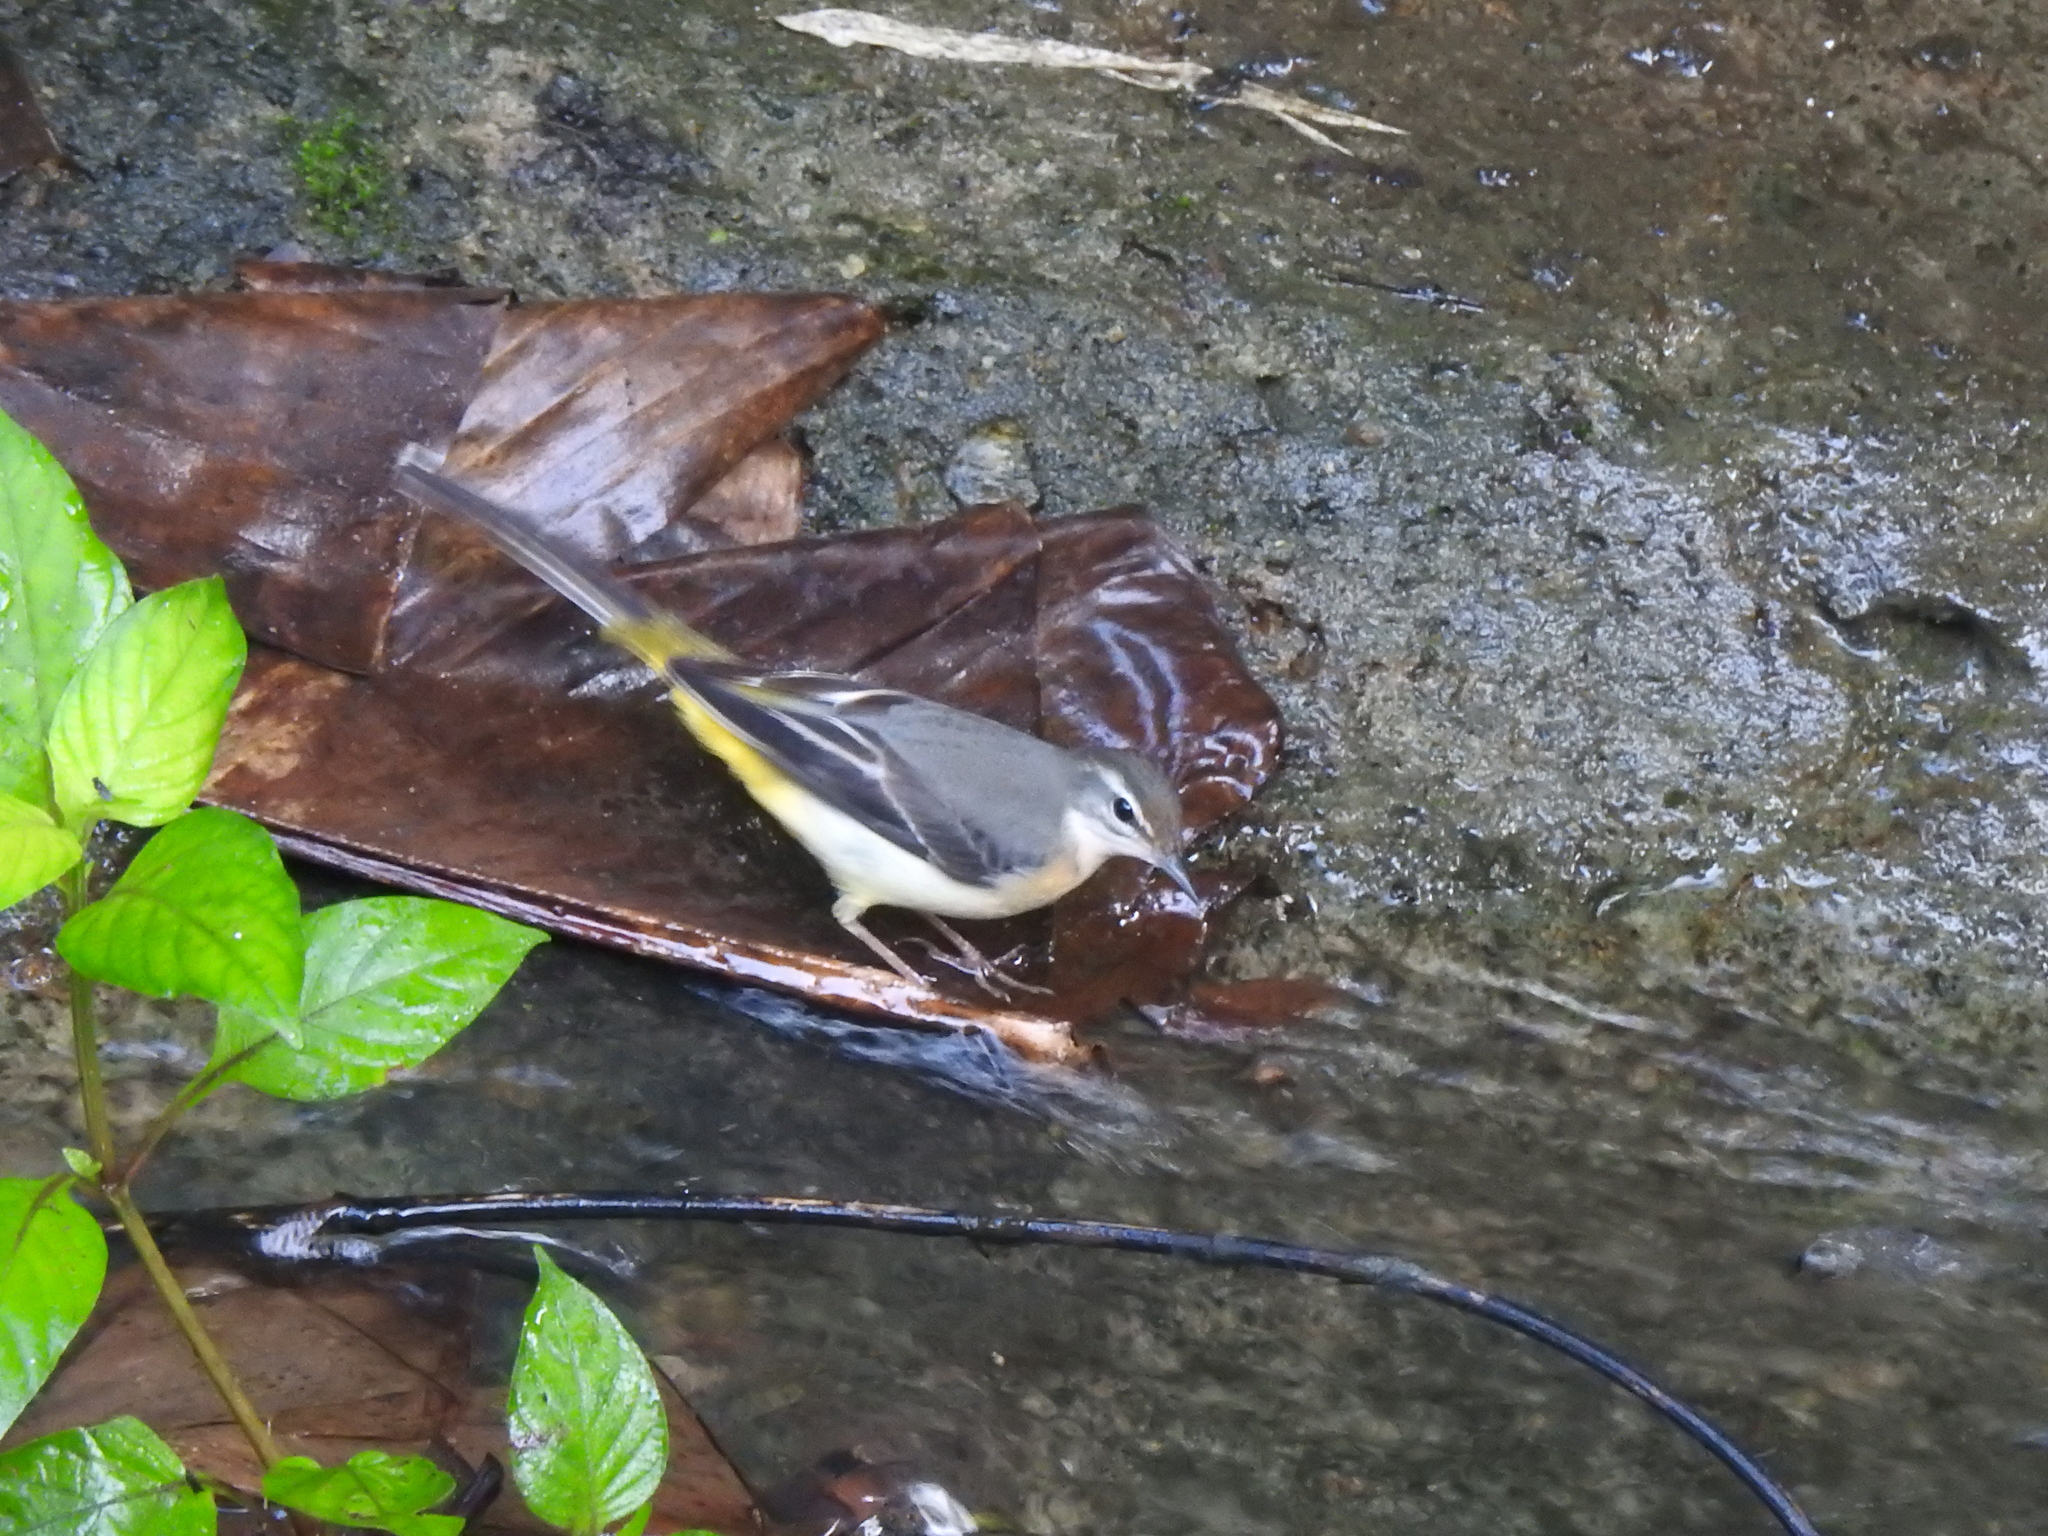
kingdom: Animalia
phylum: Chordata
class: Aves
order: Passeriformes
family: Motacillidae
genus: Motacilla
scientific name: Motacilla cinerea
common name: Grey wagtail
